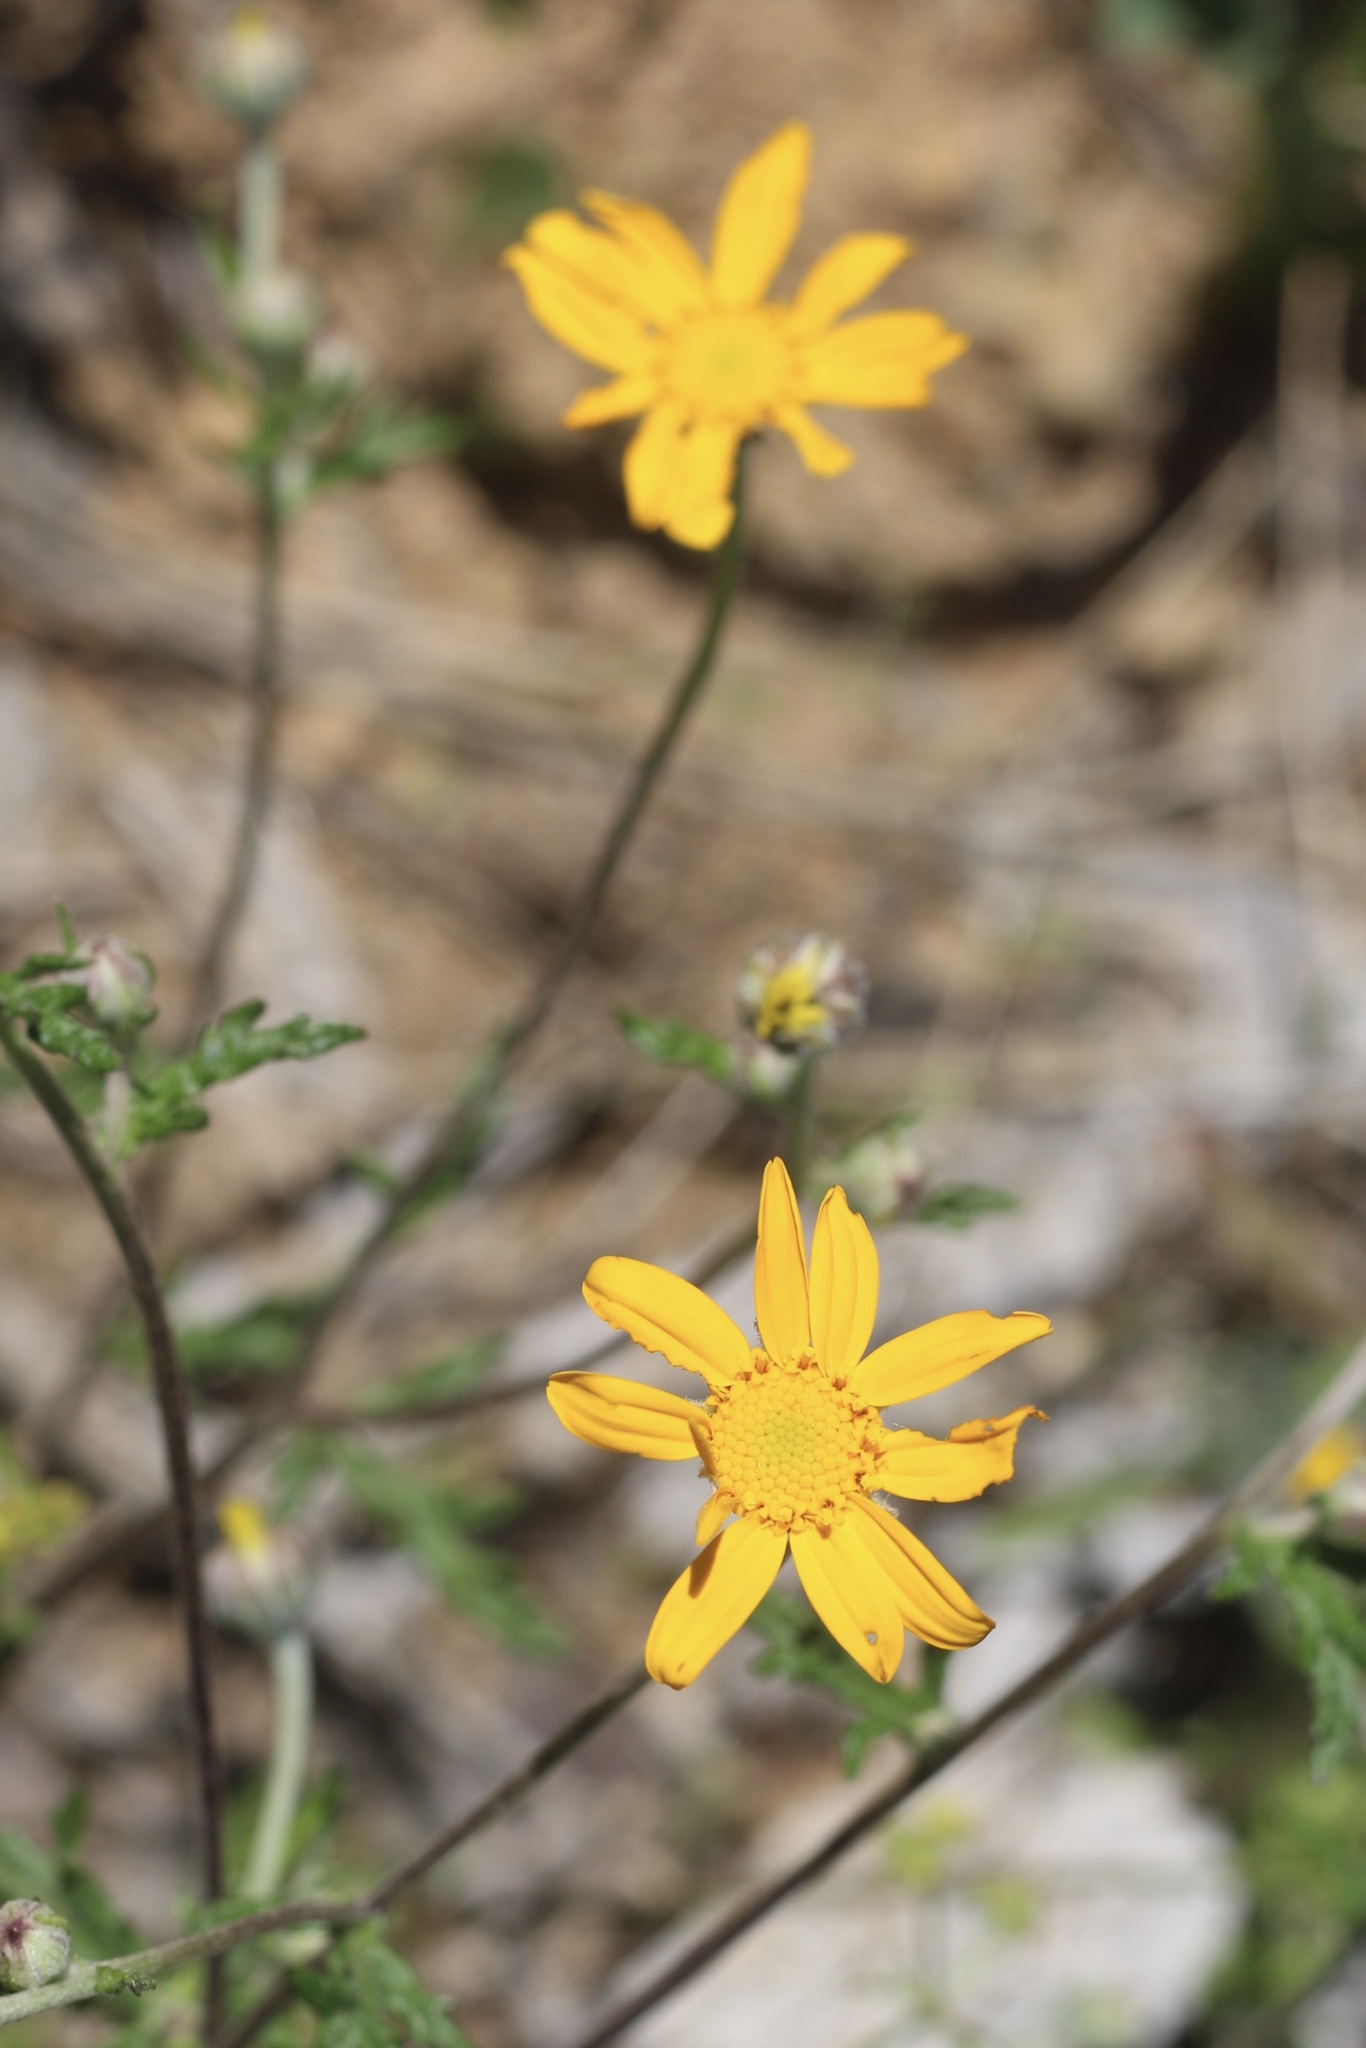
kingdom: Plantae
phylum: Tracheophyta
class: Magnoliopsida
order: Asterales
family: Asteraceae
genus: Eriophyllum
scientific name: Eriophyllum lanatum
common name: Common woolly-sunflower
